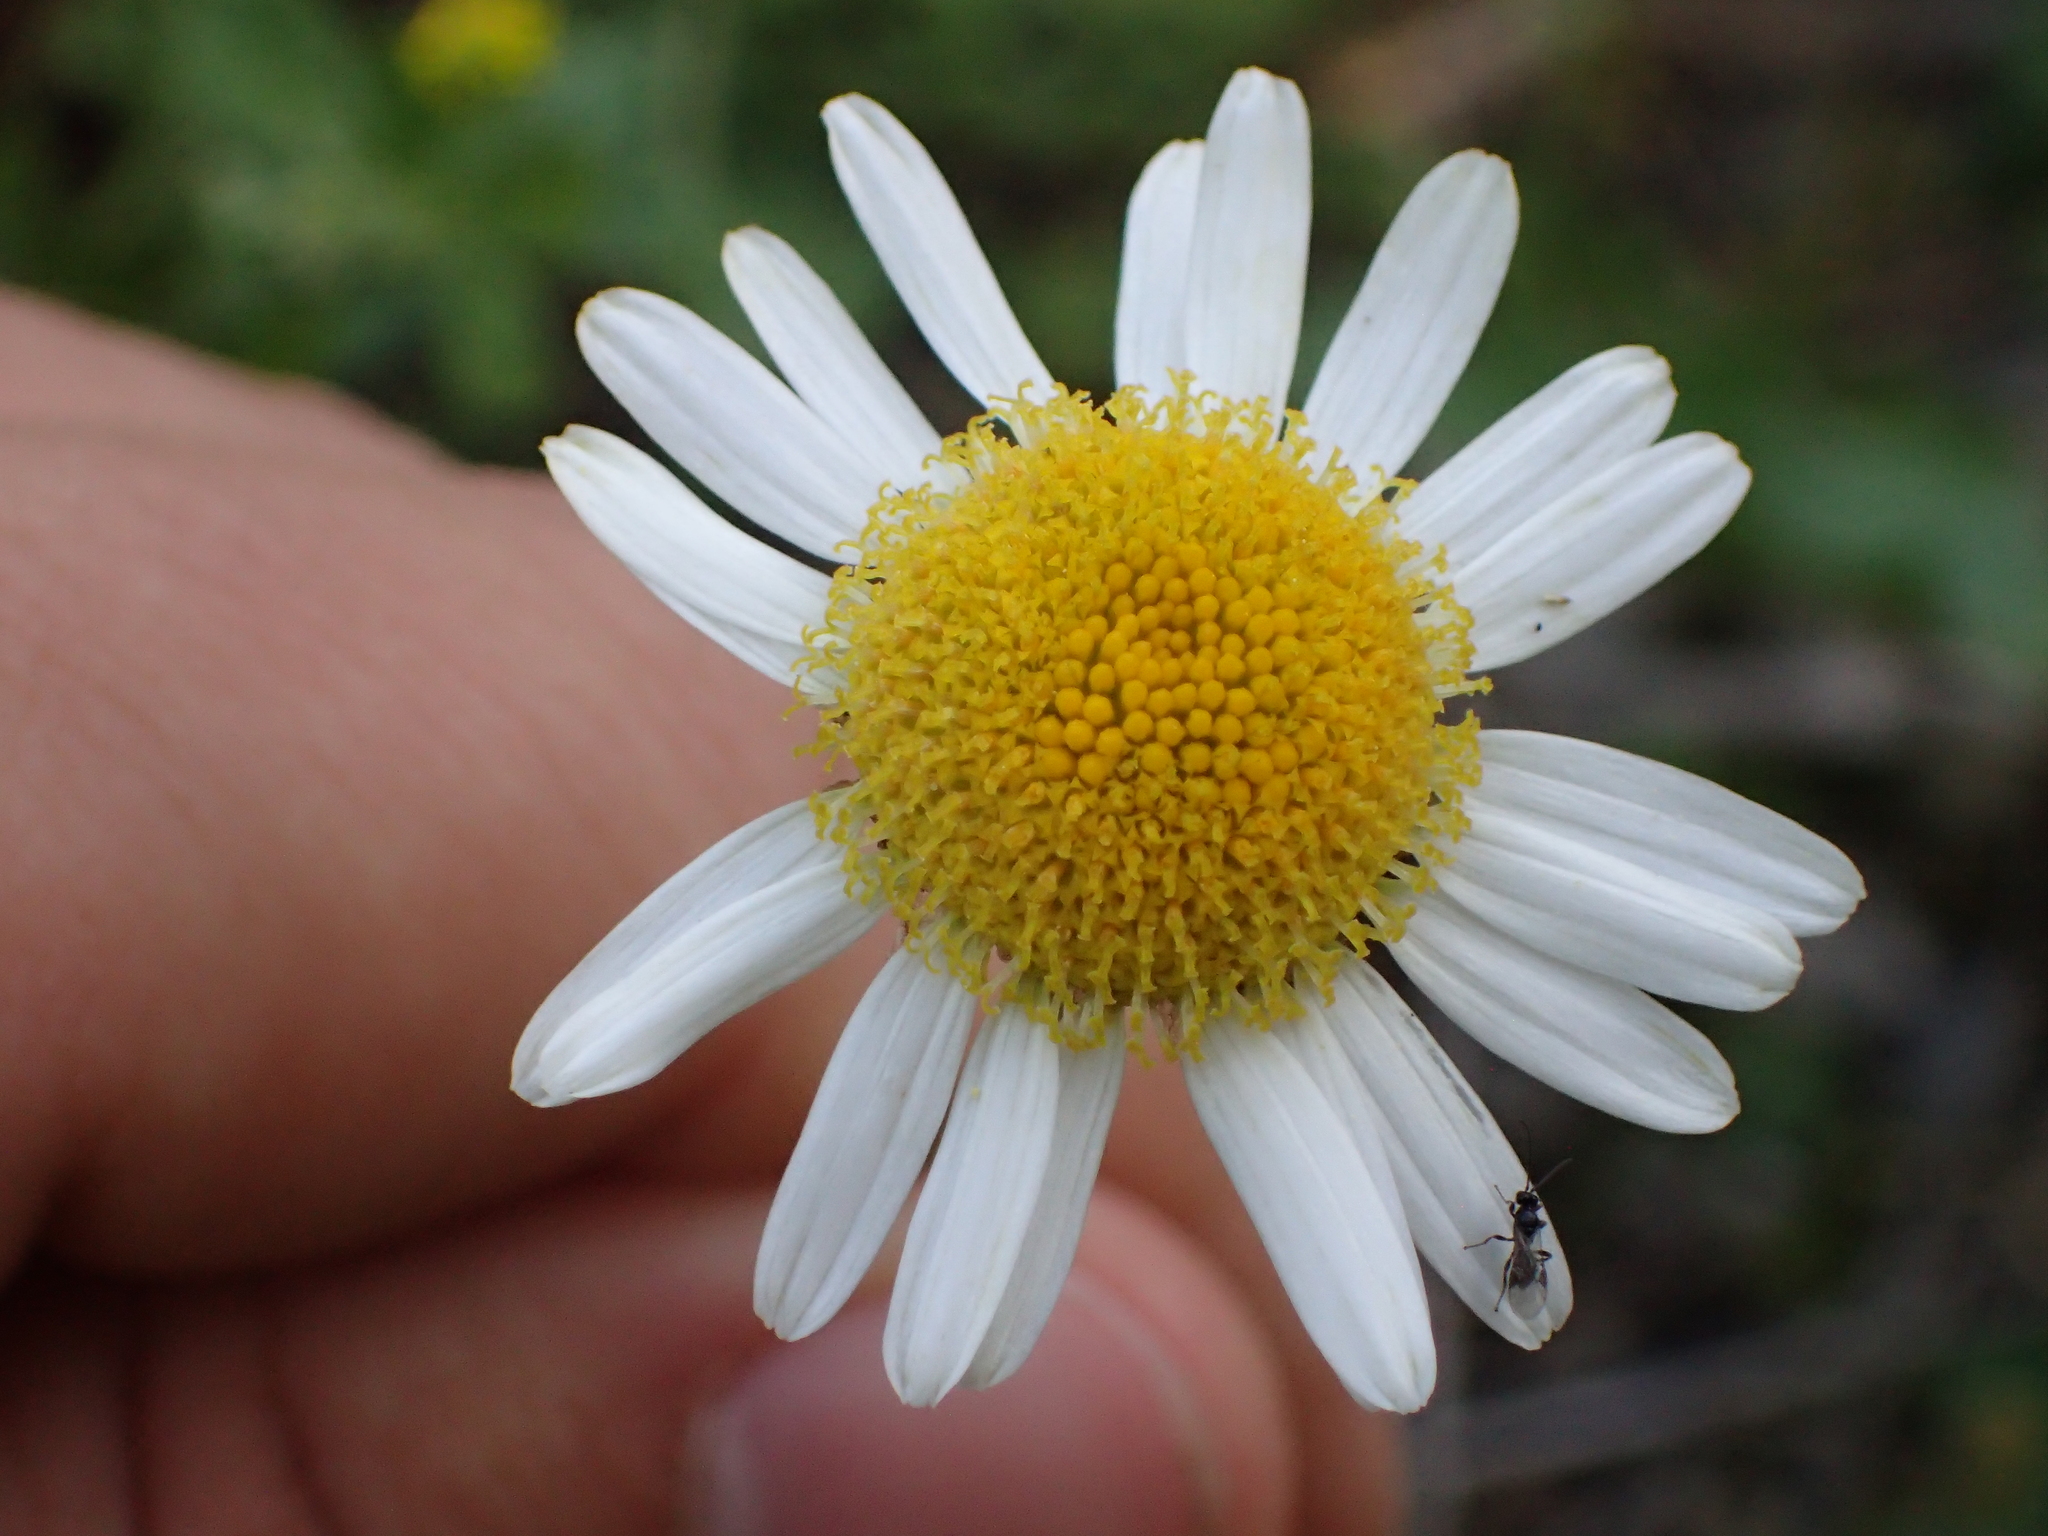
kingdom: Plantae
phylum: Tracheophyta
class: Magnoliopsida
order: Asterales
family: Asteraceae
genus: Tripleurospermum
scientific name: Tripleurospermum inodorum
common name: Scentless mayweed
